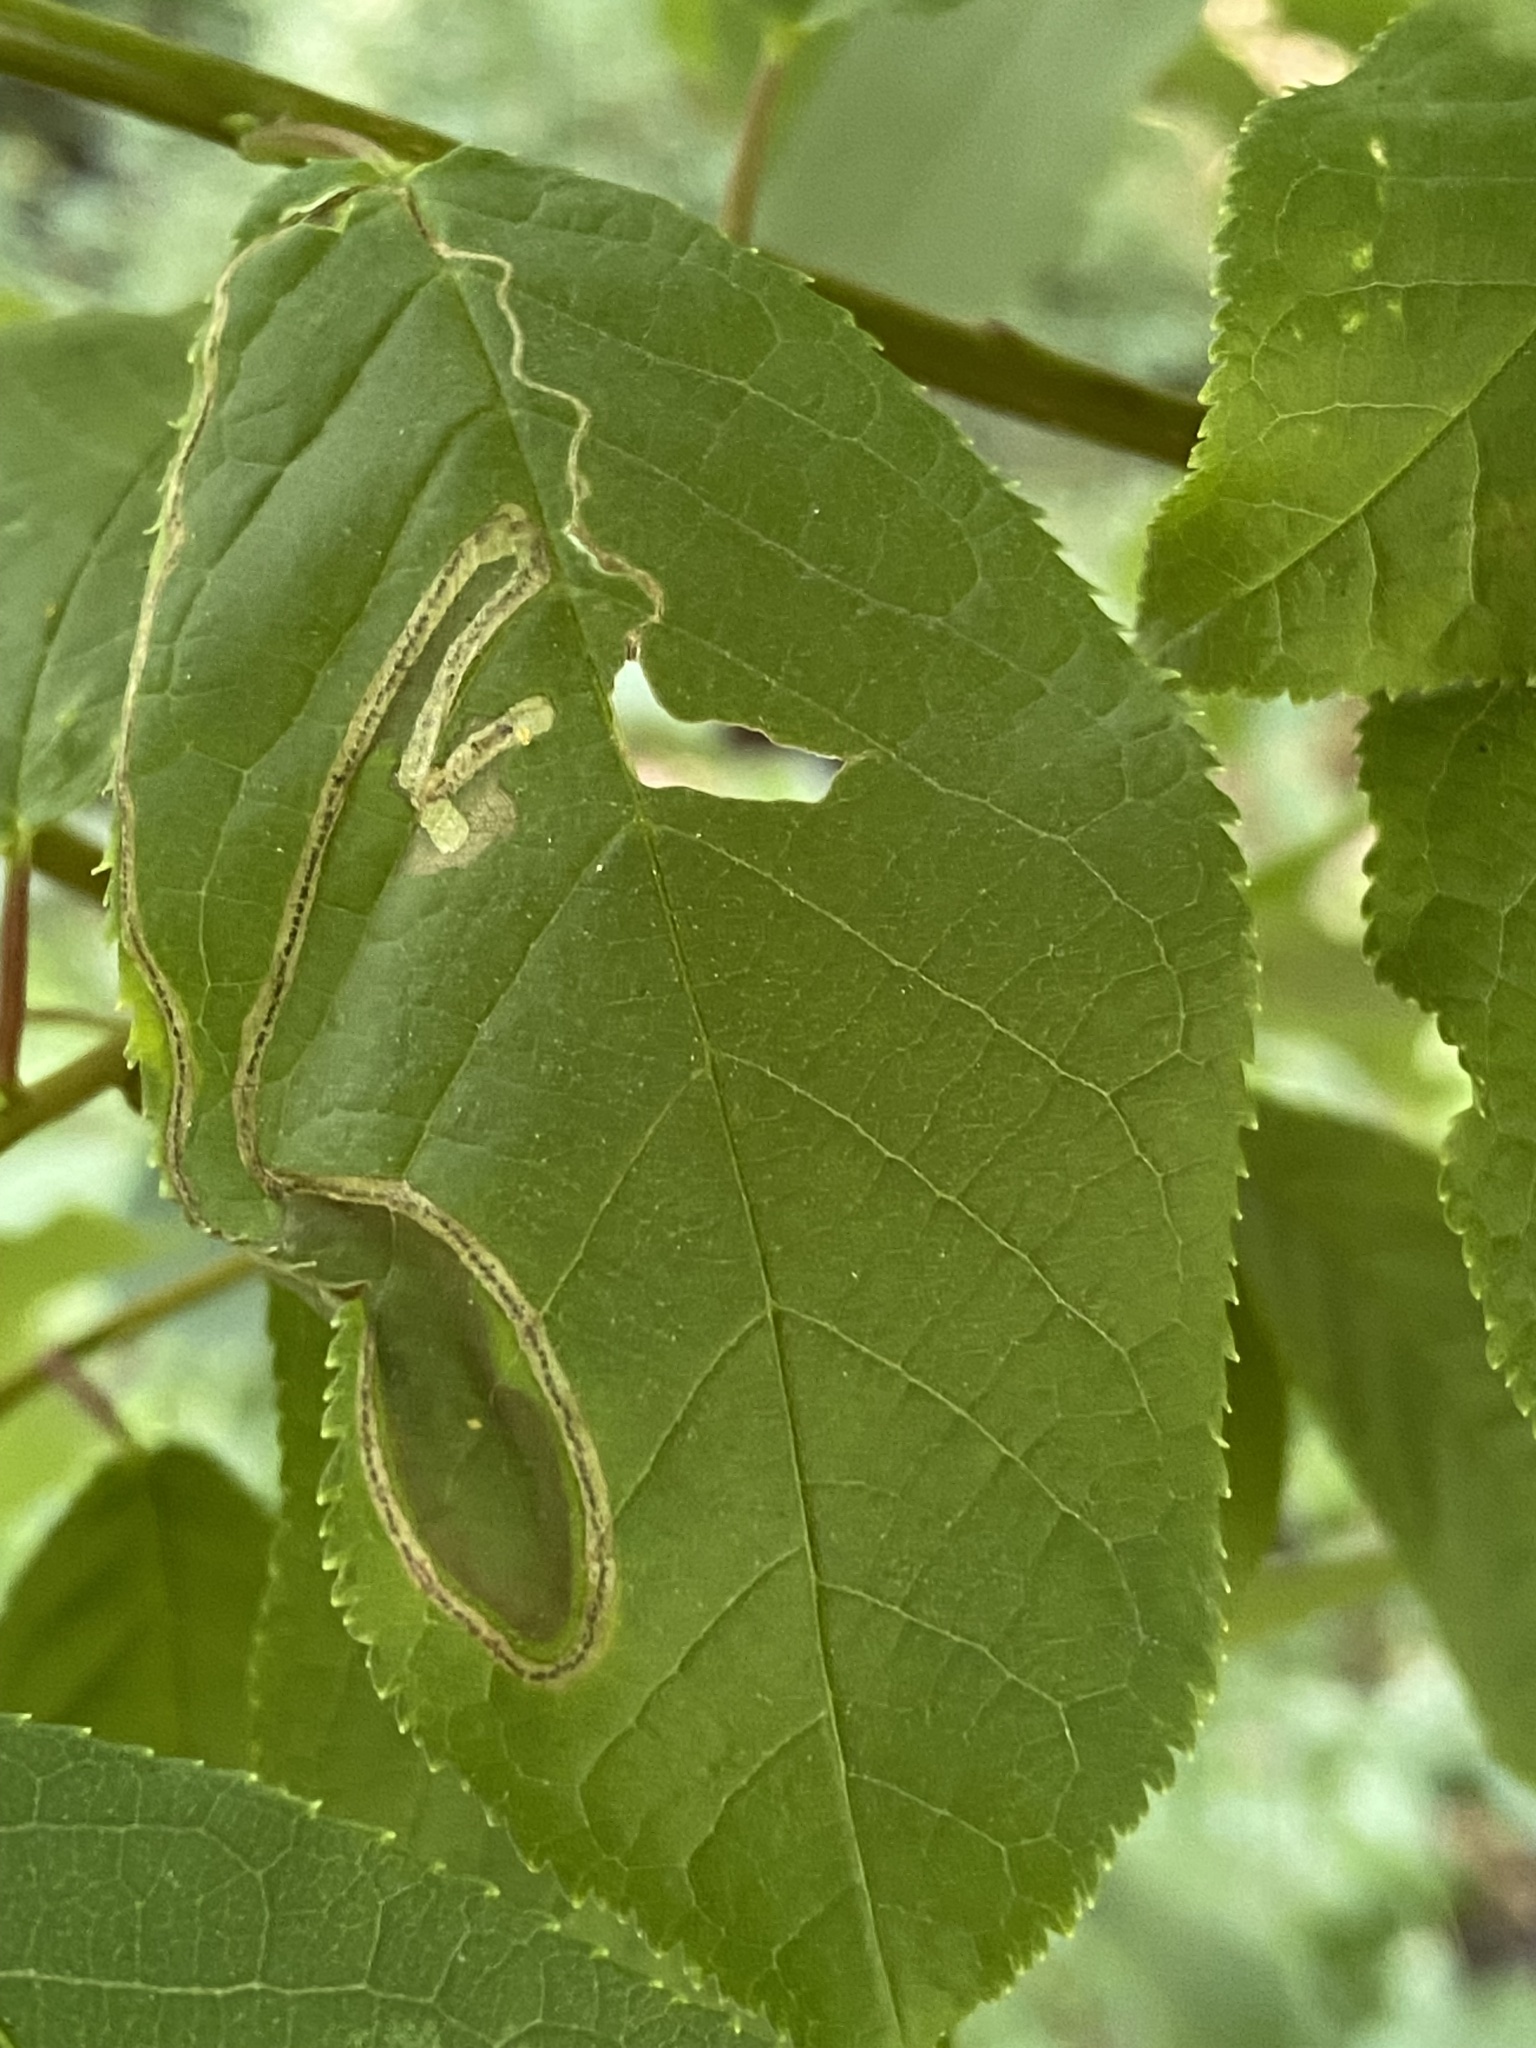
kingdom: Animalia
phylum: Arthropoda
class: Insecta
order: Lepidoptera
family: Lyonetiidae
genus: Lyonetia
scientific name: Lyonetia clerkella
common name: Apple leaf miner
